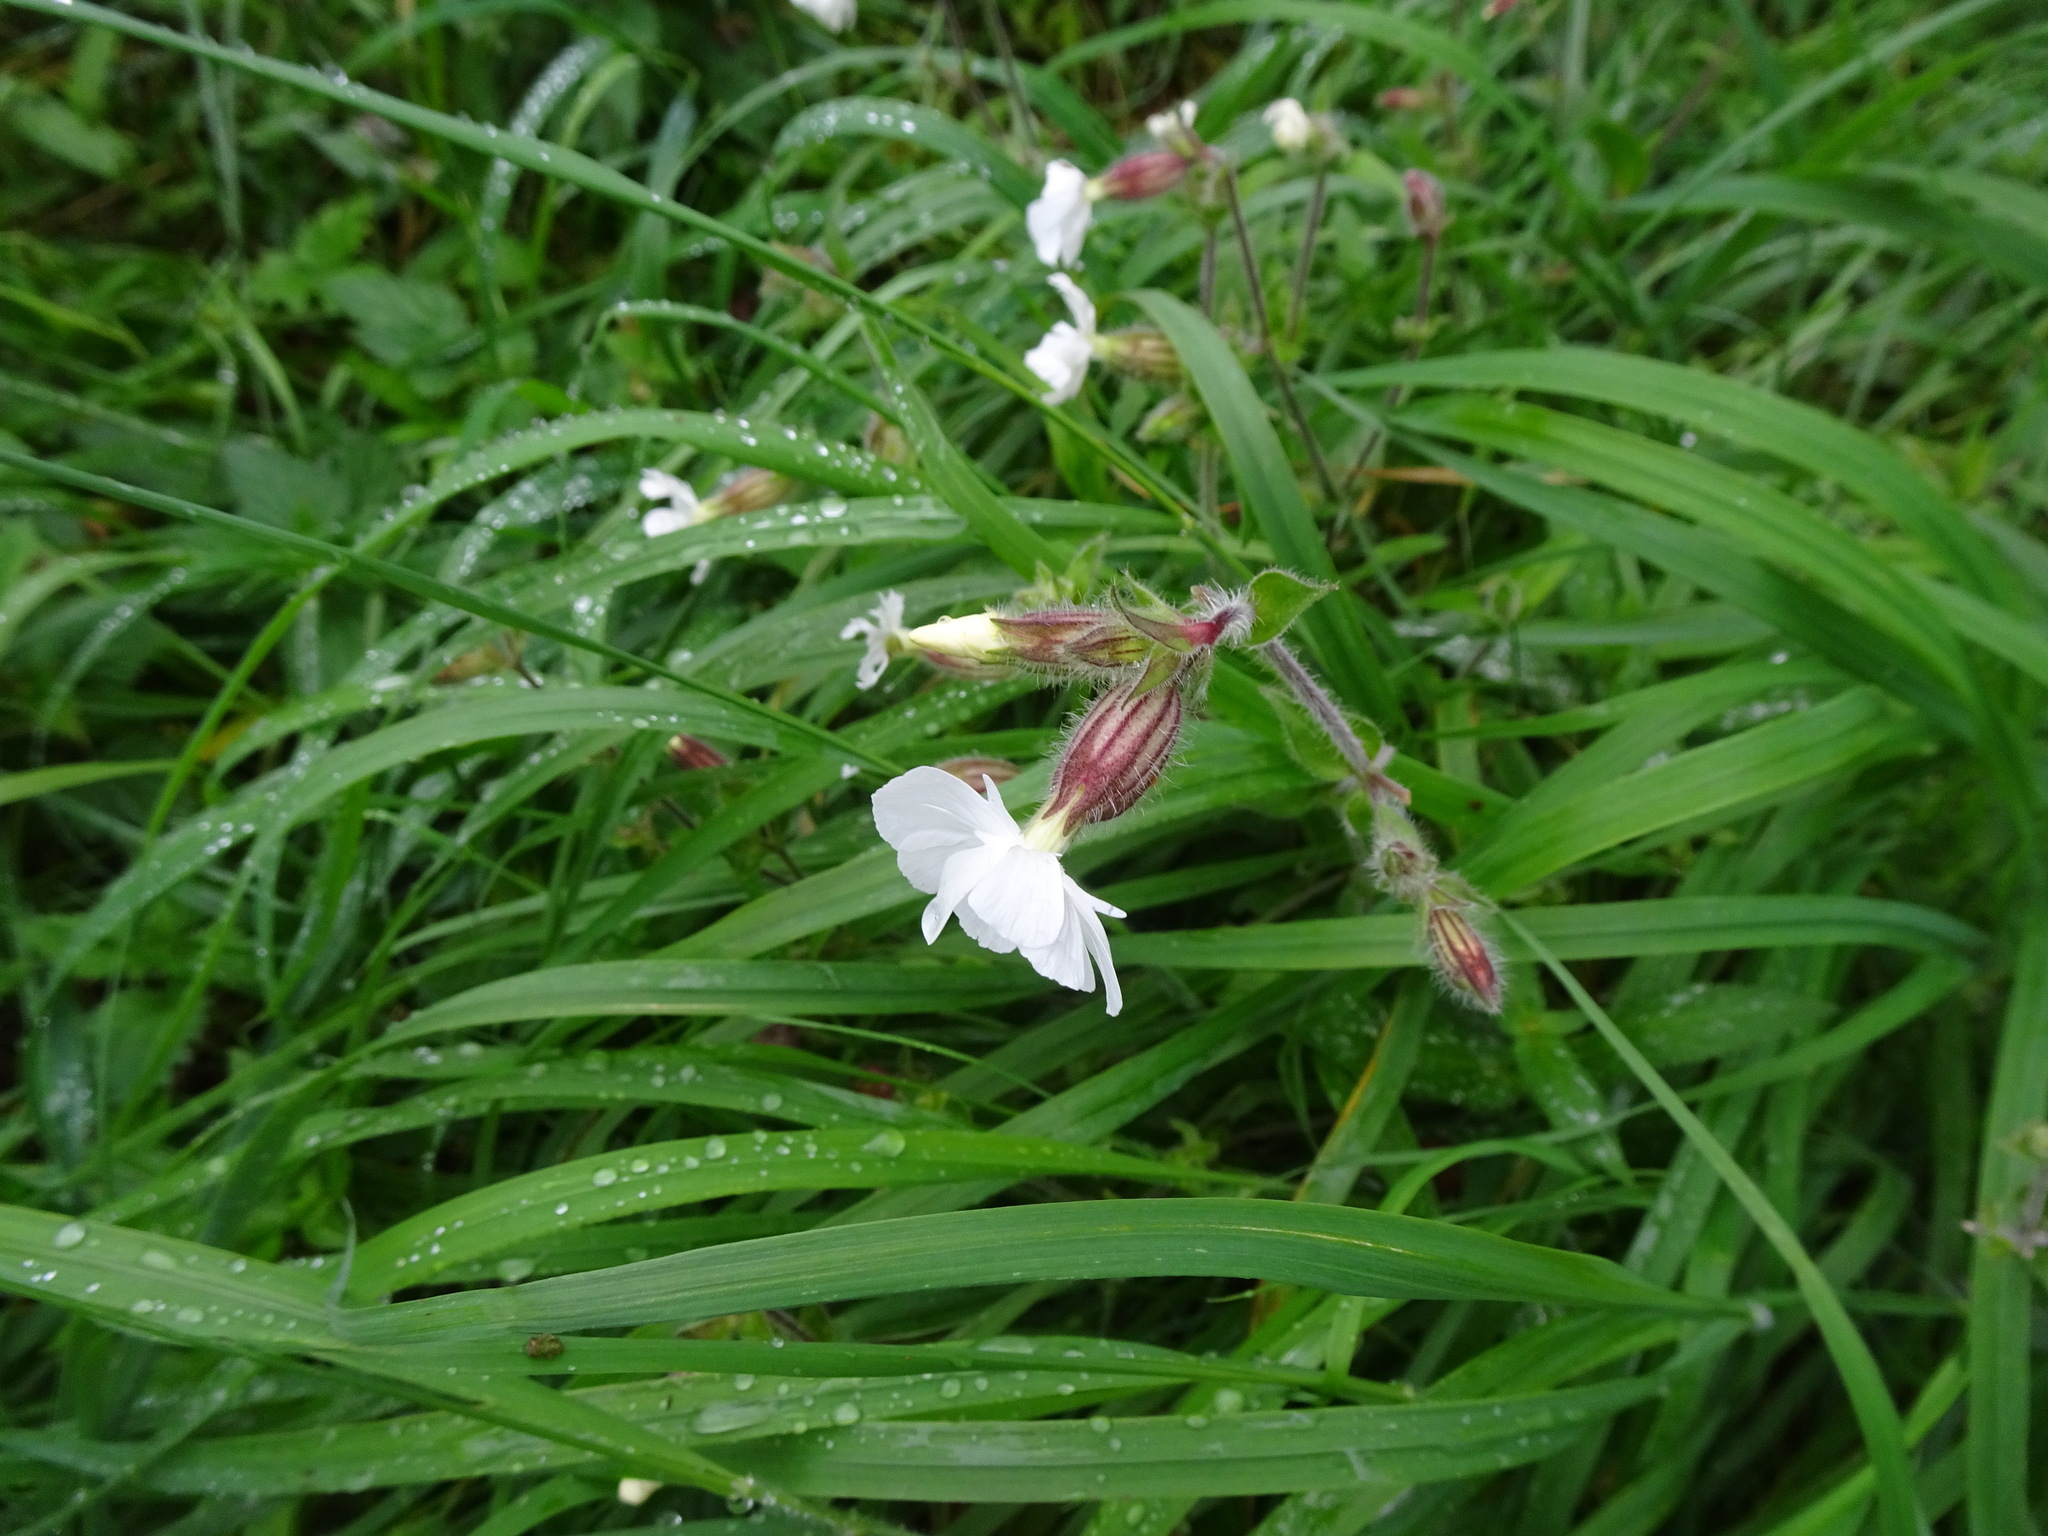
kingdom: Plantae
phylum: Tracheophyta
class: Magnoliopsida
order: Caryophyllales
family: Caryophyllaceae
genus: Silene
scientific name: Silene latifolia
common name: White campion
